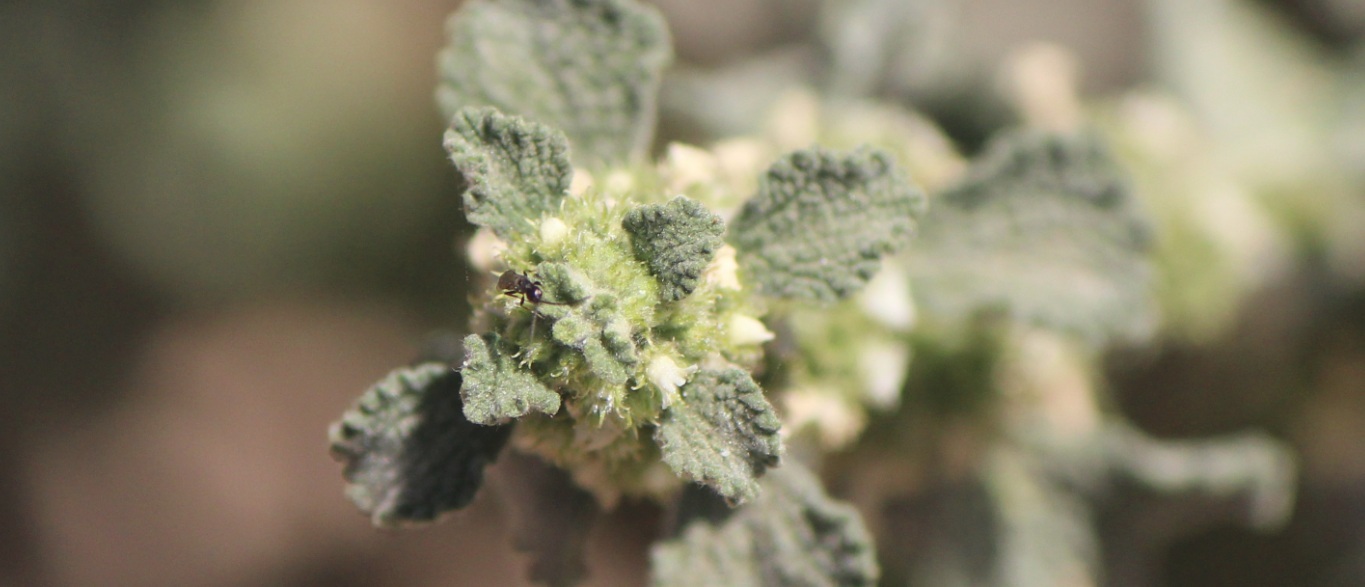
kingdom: Plantae
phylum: Tracheophyta
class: Magnoliopsida
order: Lamiales
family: Lamiaceae
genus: Marrubium
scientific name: Marrubium vulgare
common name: Horehound
